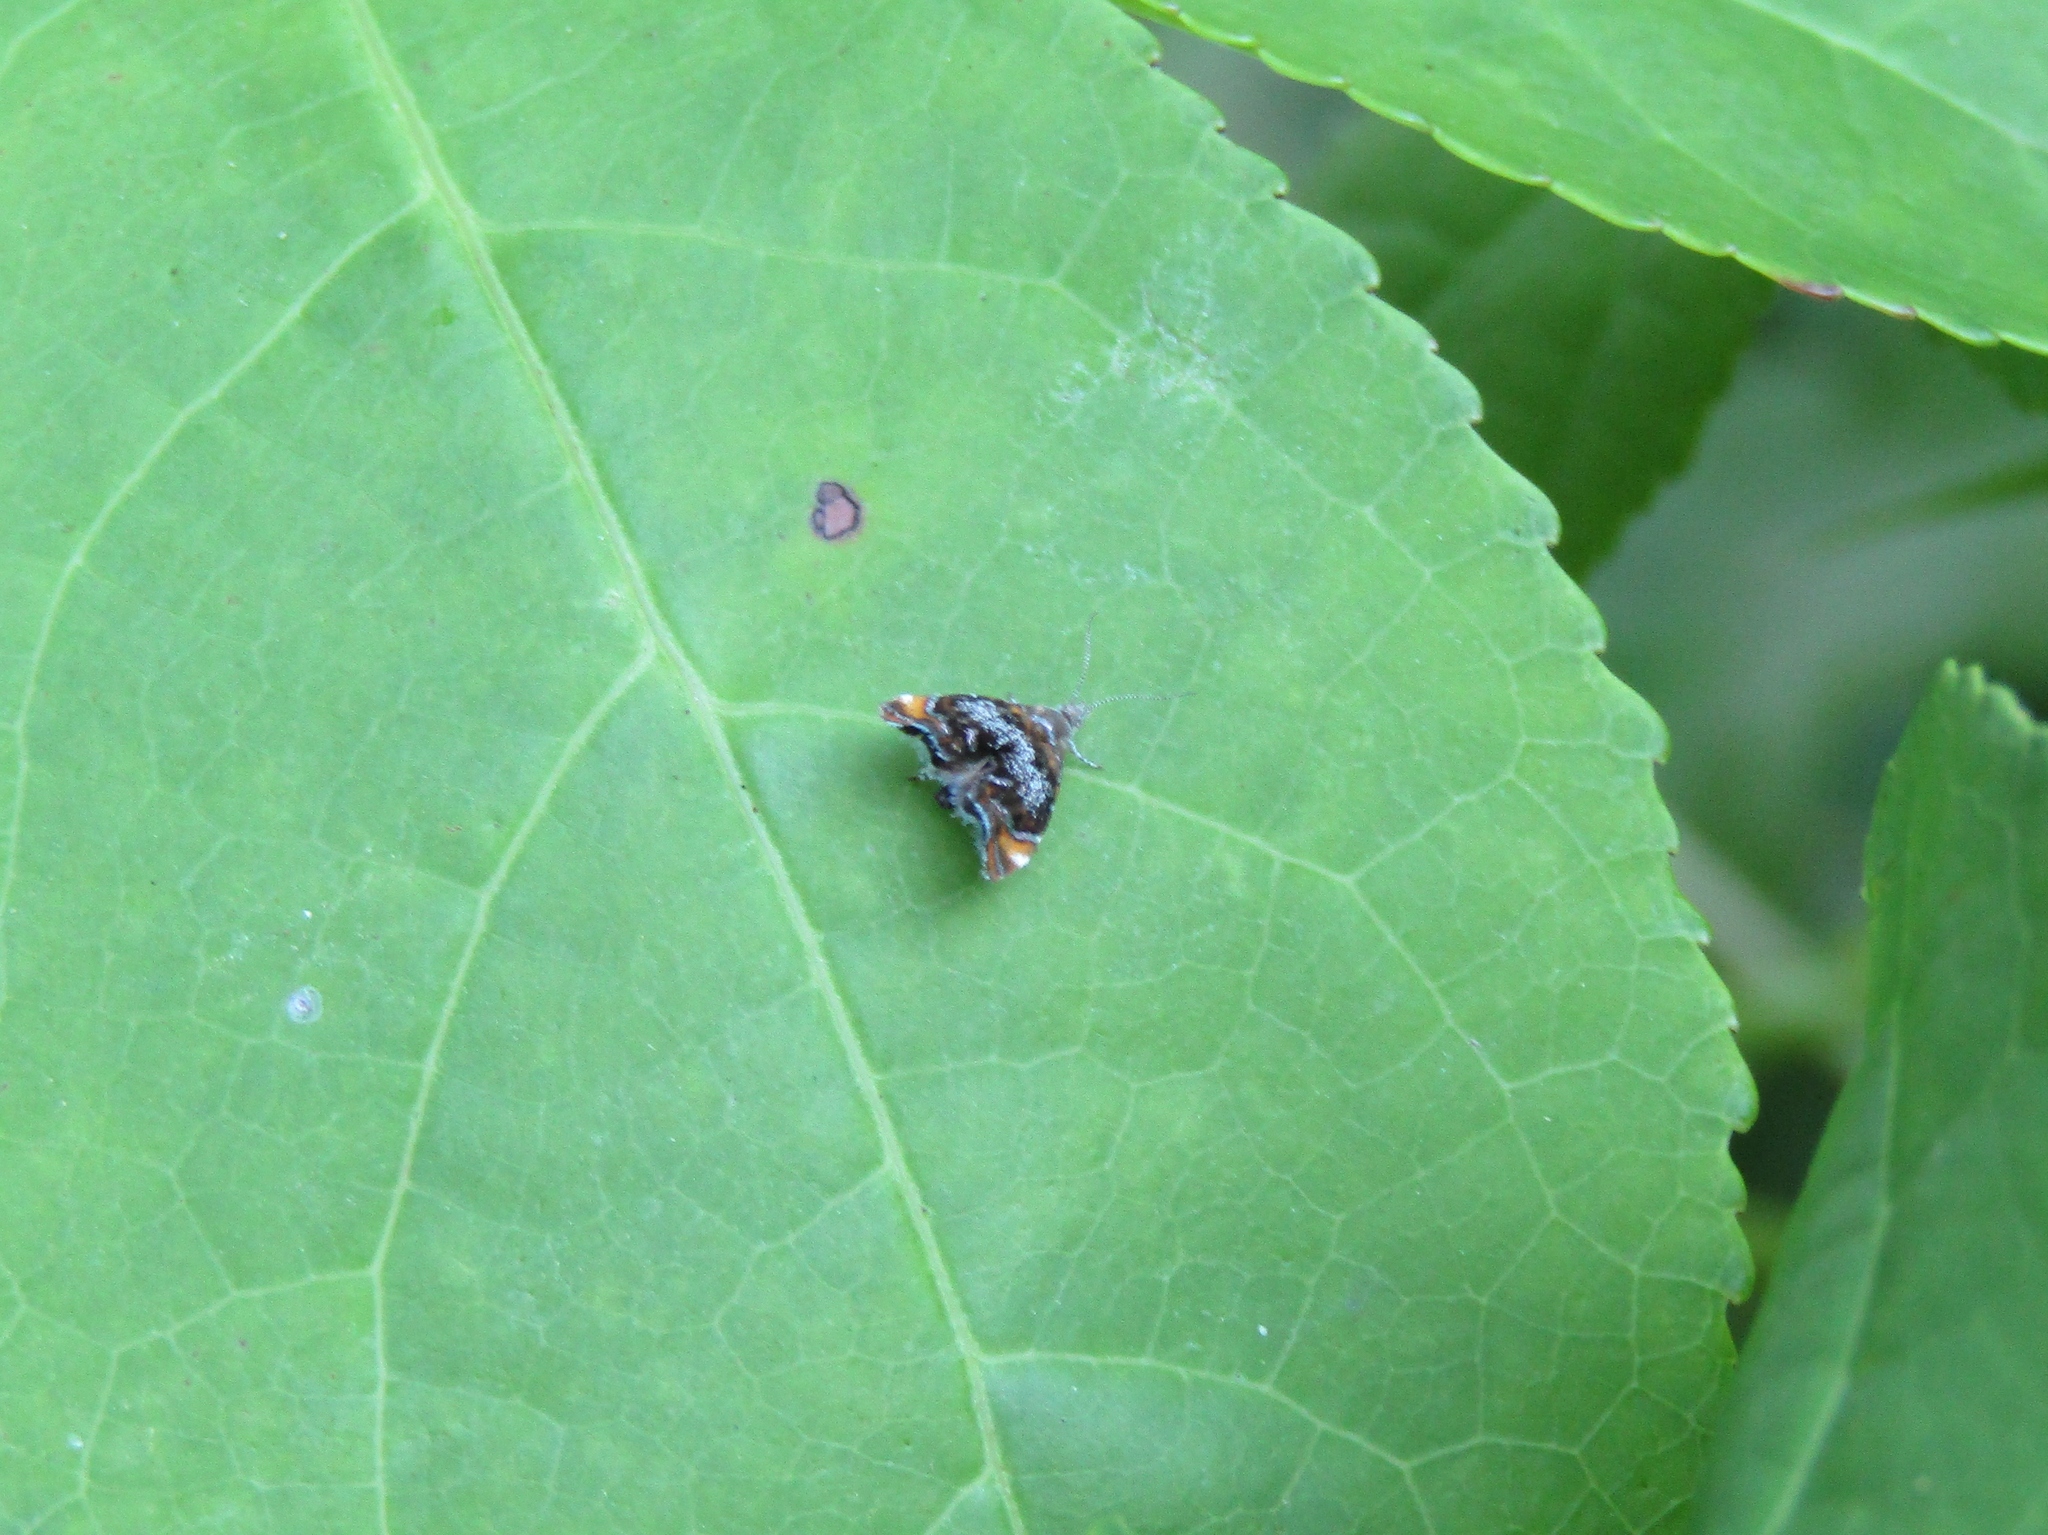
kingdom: Animalia
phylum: Arthropoda
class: Insecta
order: Lepidoptera
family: Choreutidae
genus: Prochoreutis
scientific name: Prochoreutis inflatella
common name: Skullcap skeletonizer moth
